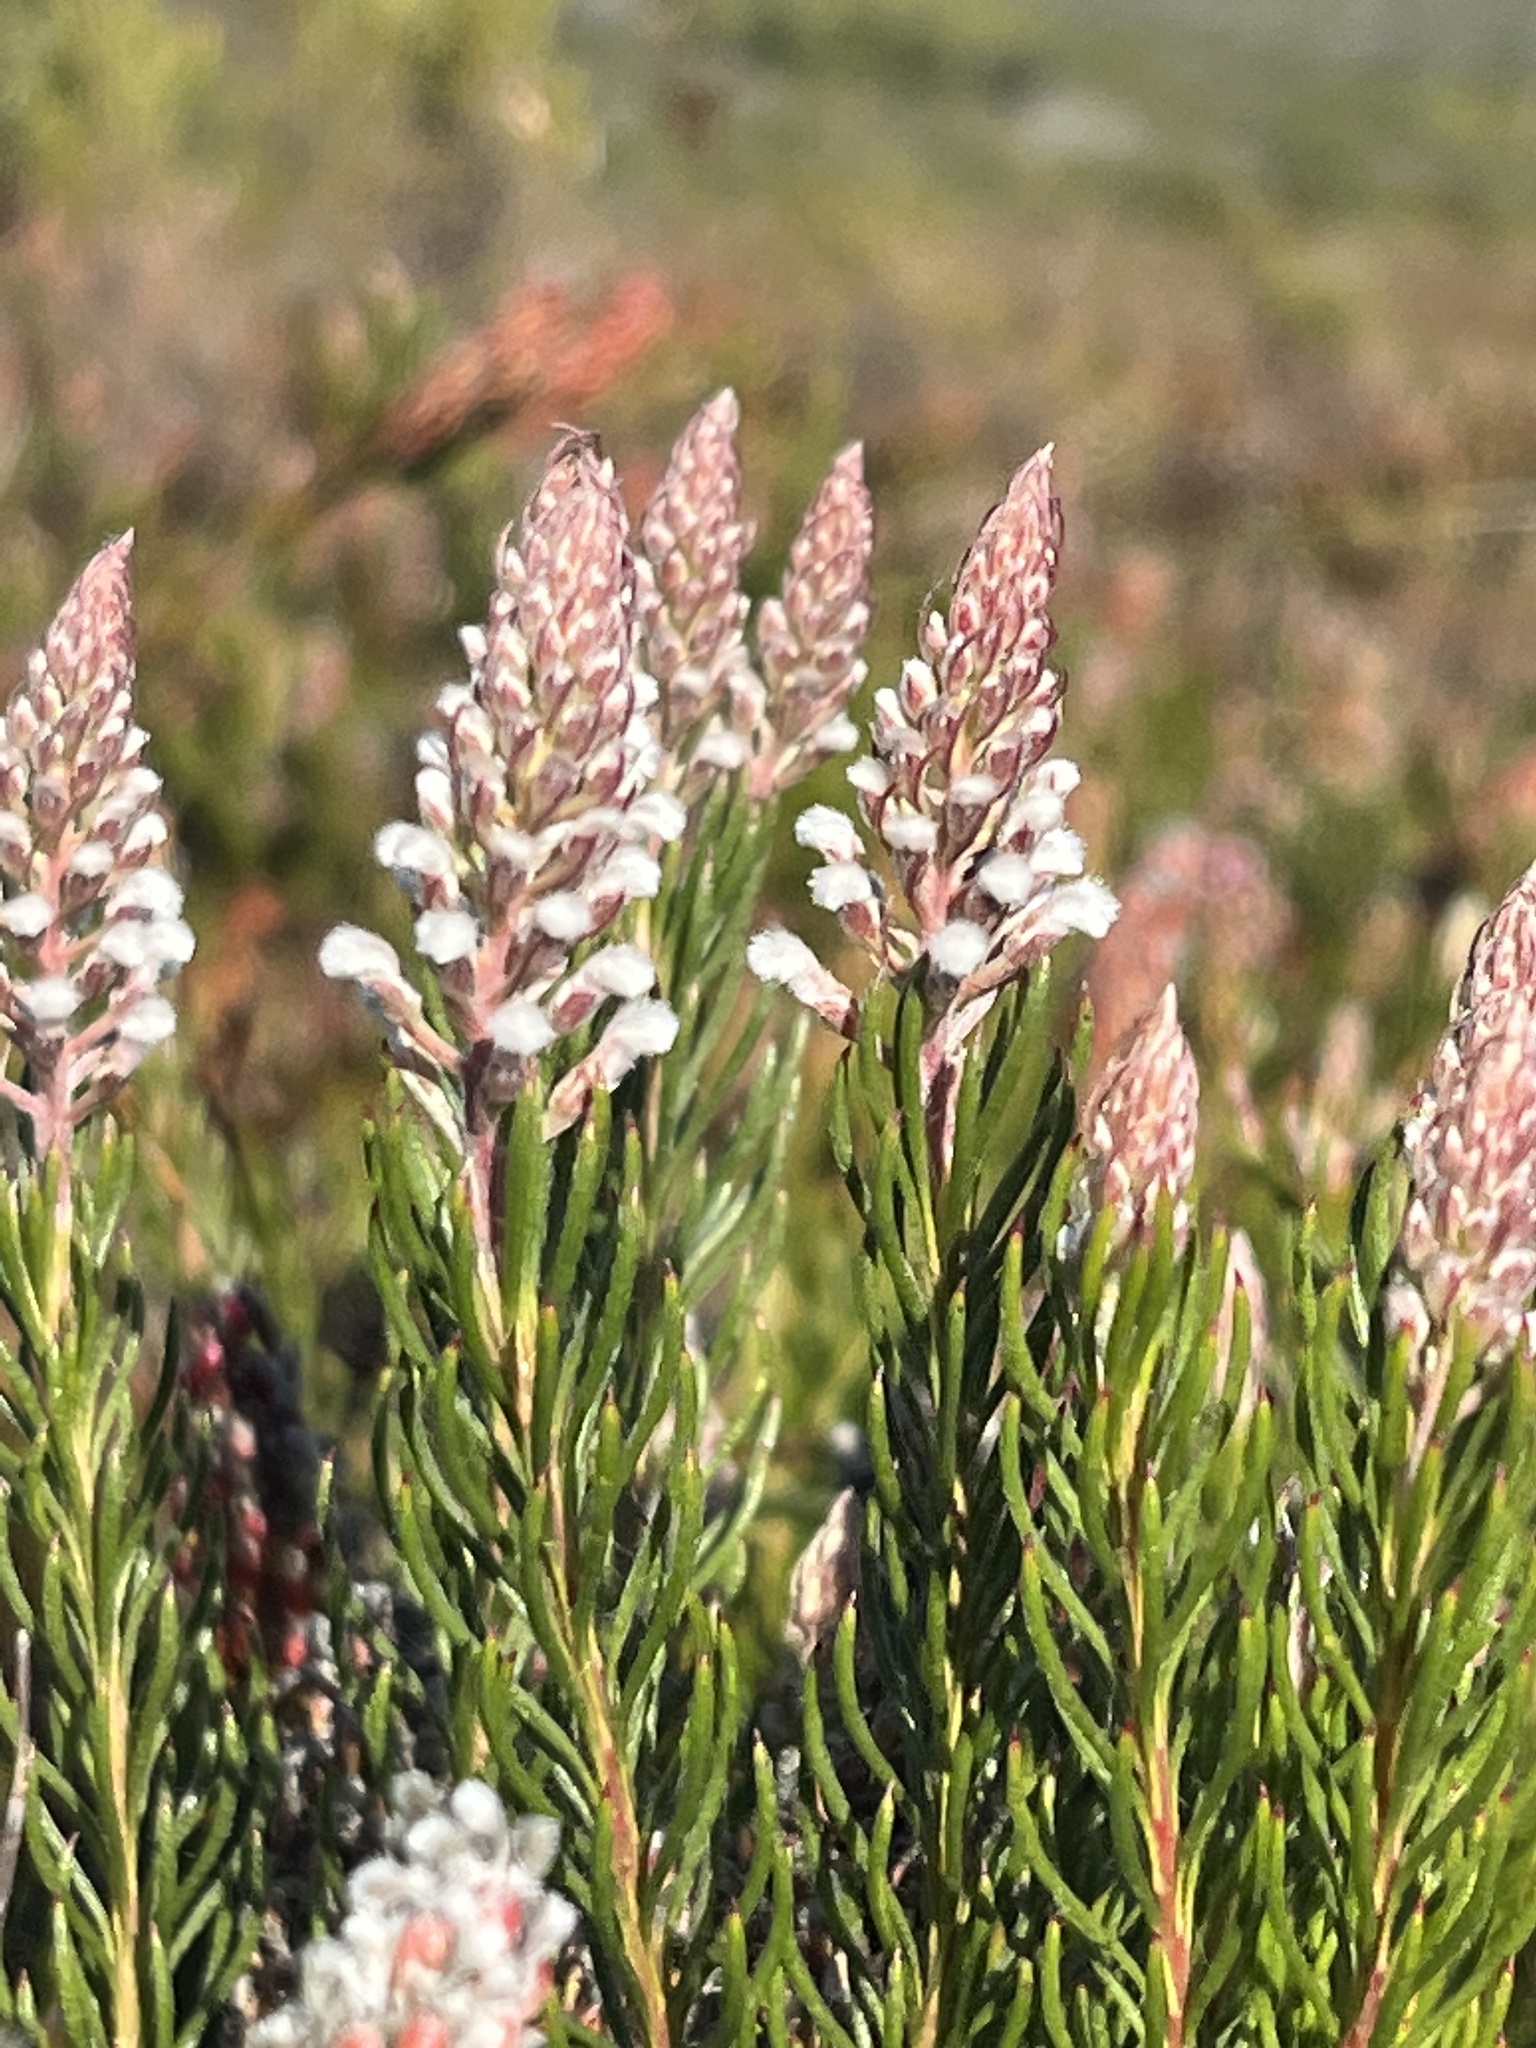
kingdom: Plantae
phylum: Tracheophyta
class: Magnoliopsida
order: Proteales
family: Proteaceae
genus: Spatalla
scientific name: Spatalla curvifolia
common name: White-stalked spoon
